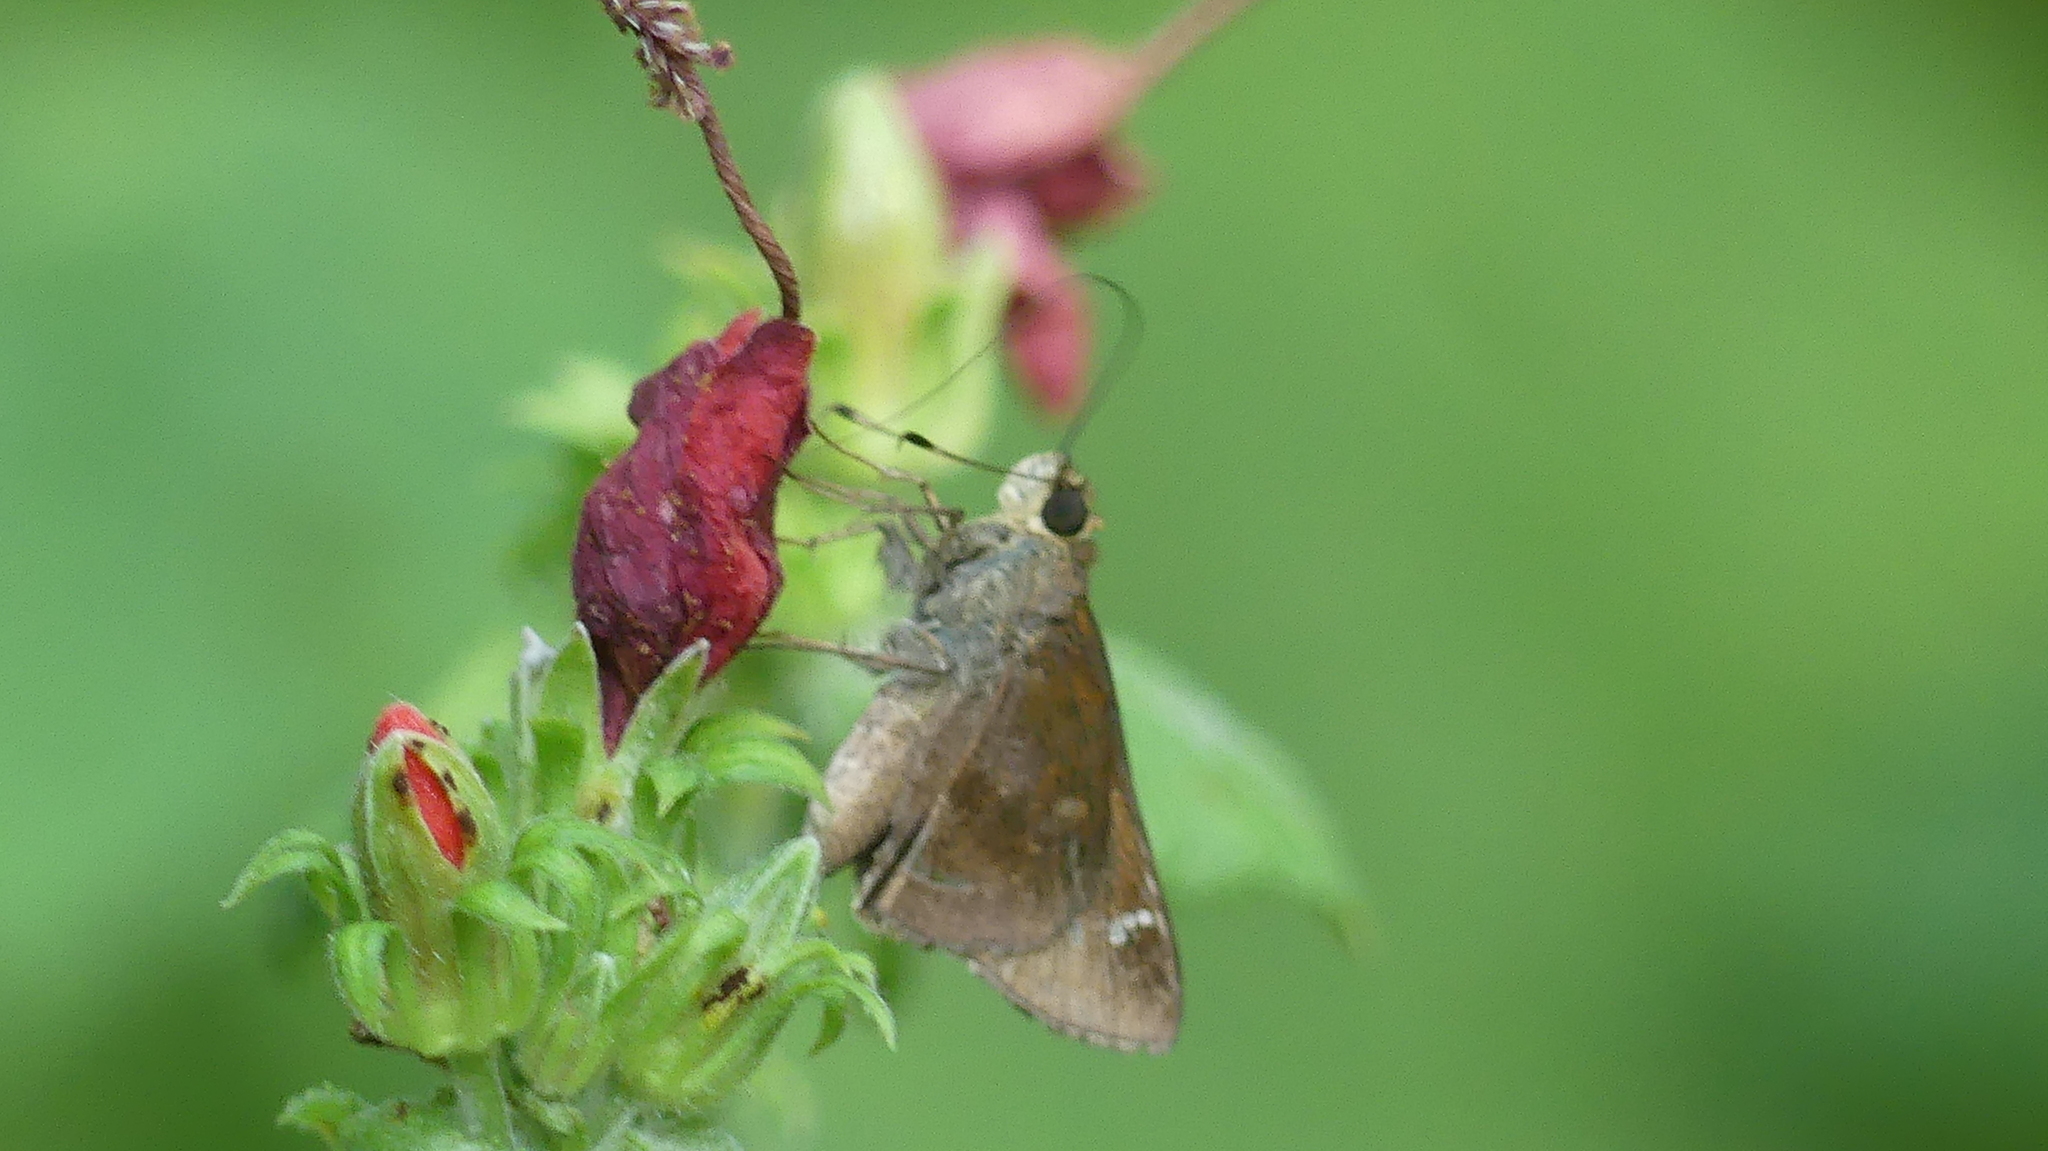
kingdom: Animalia
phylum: Arthropoda
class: Insecta
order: Lepidoptera
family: Hesperiidae
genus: Lerema
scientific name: Lerema accius
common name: Clouded skipper
